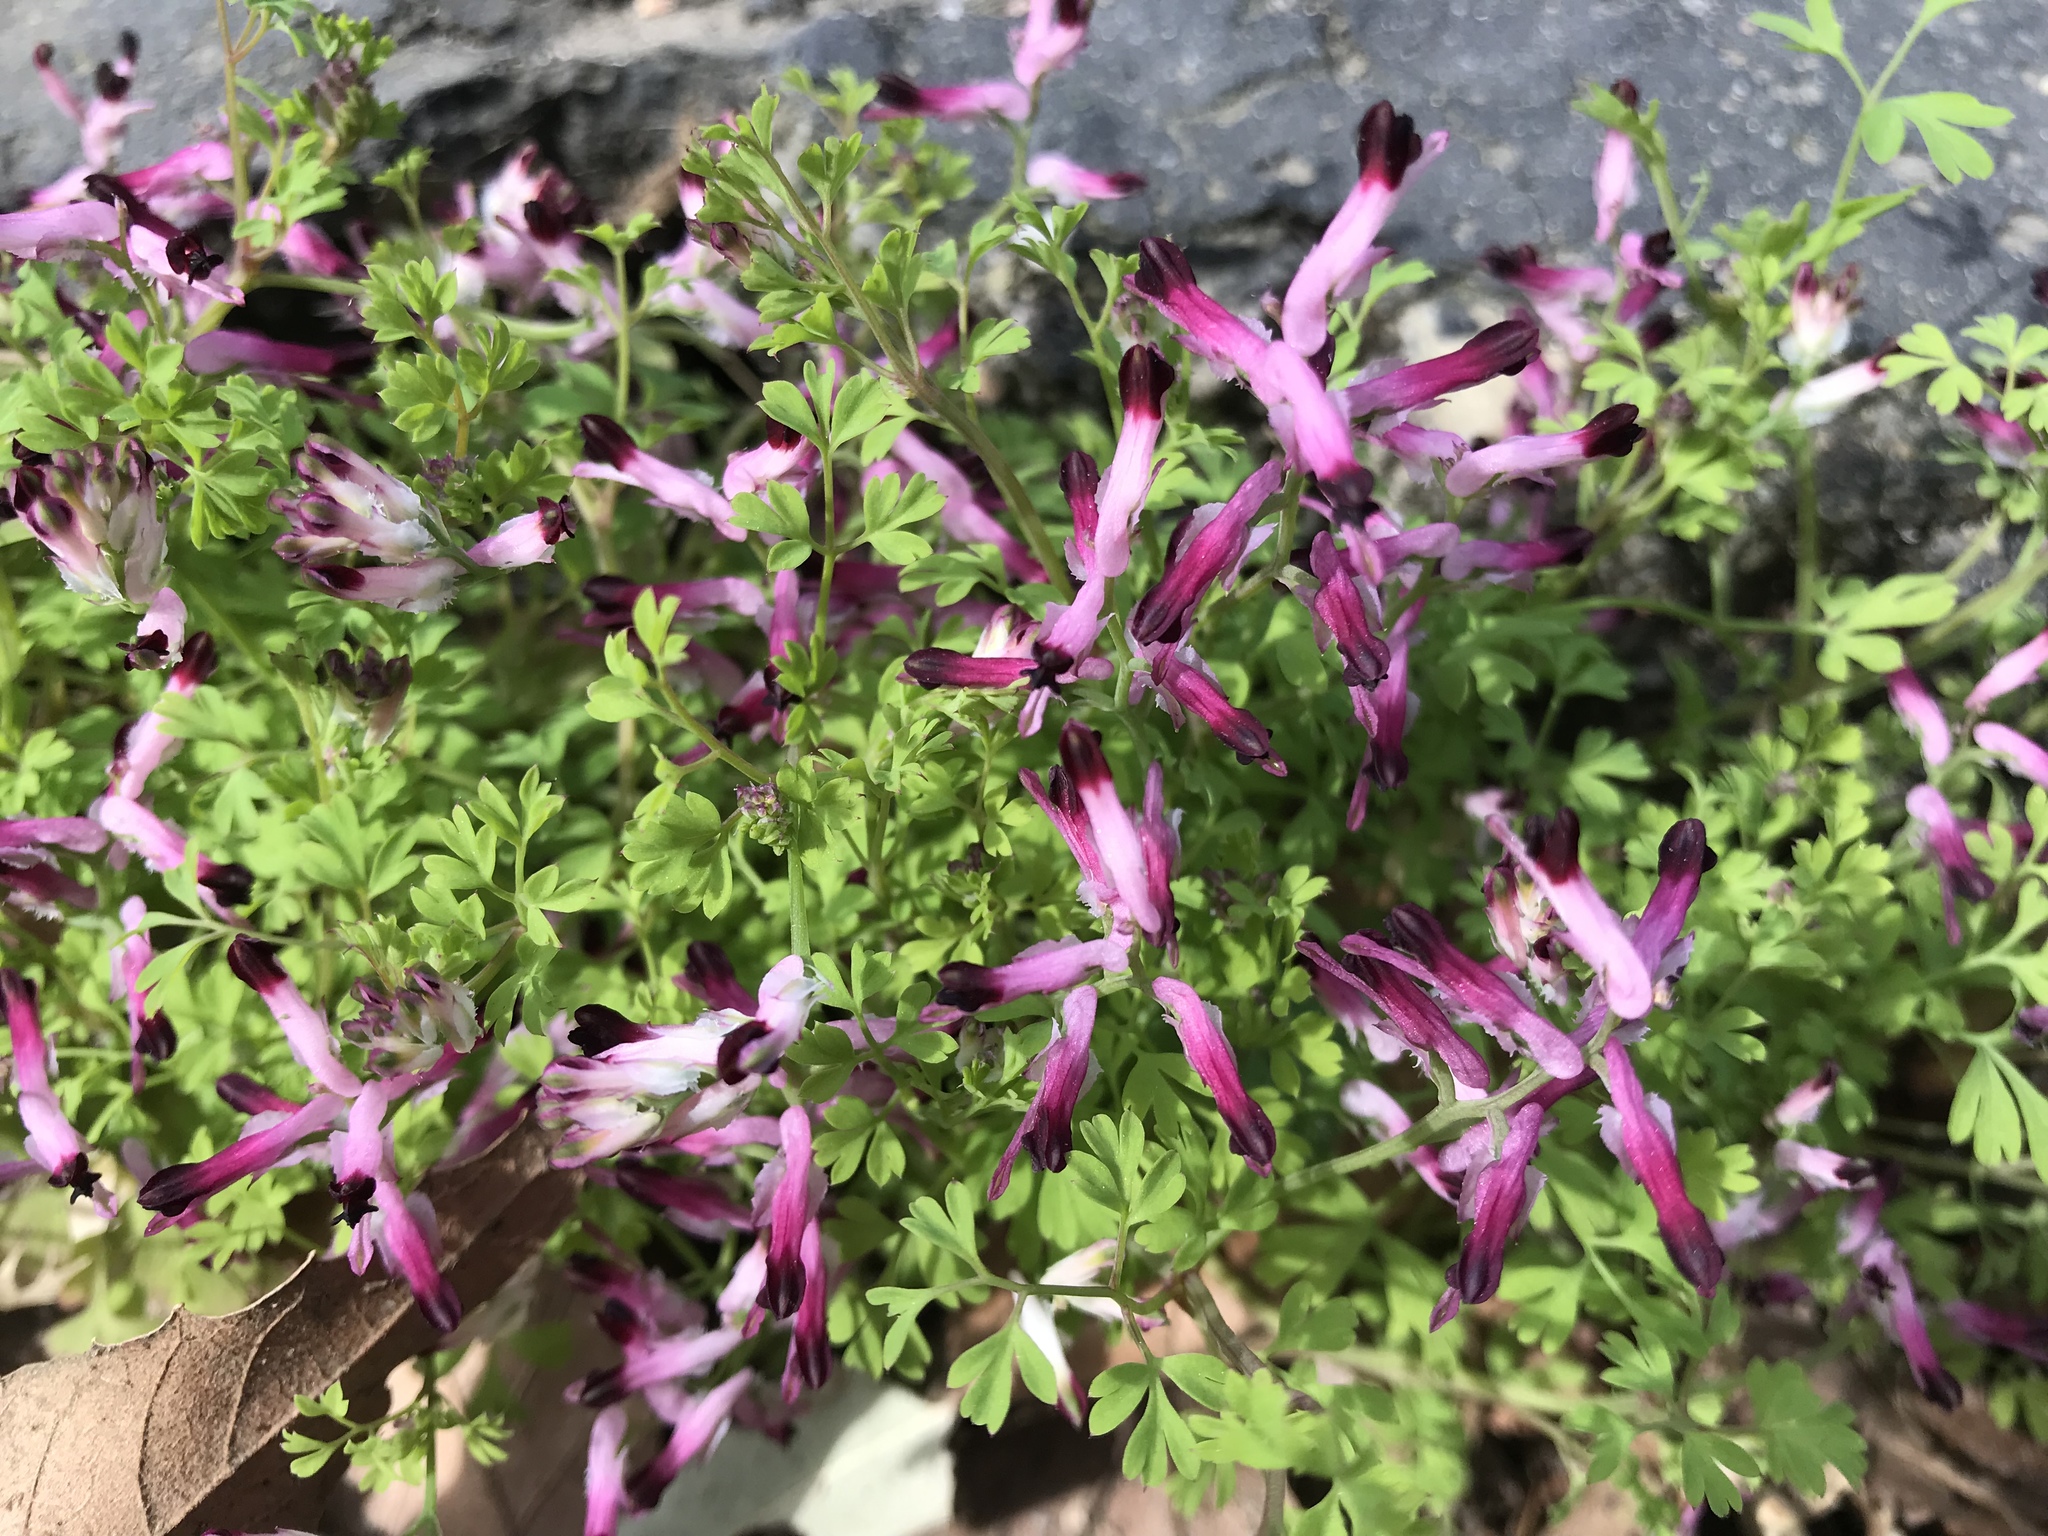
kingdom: Plantae
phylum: Tracheophyta
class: Magnoliopsida
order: Ranunculales
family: Papaveraceae
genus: Fumaria
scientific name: Fumaria muralis
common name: Common ramping-fumitory
